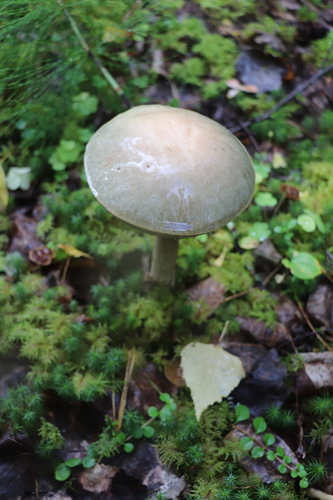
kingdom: Fungi
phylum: Basidiomycota
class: Agaricomycetes
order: Boletales
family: Boletaceae
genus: Leccinum
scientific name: Leccinum holopus
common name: Ghost bolete
